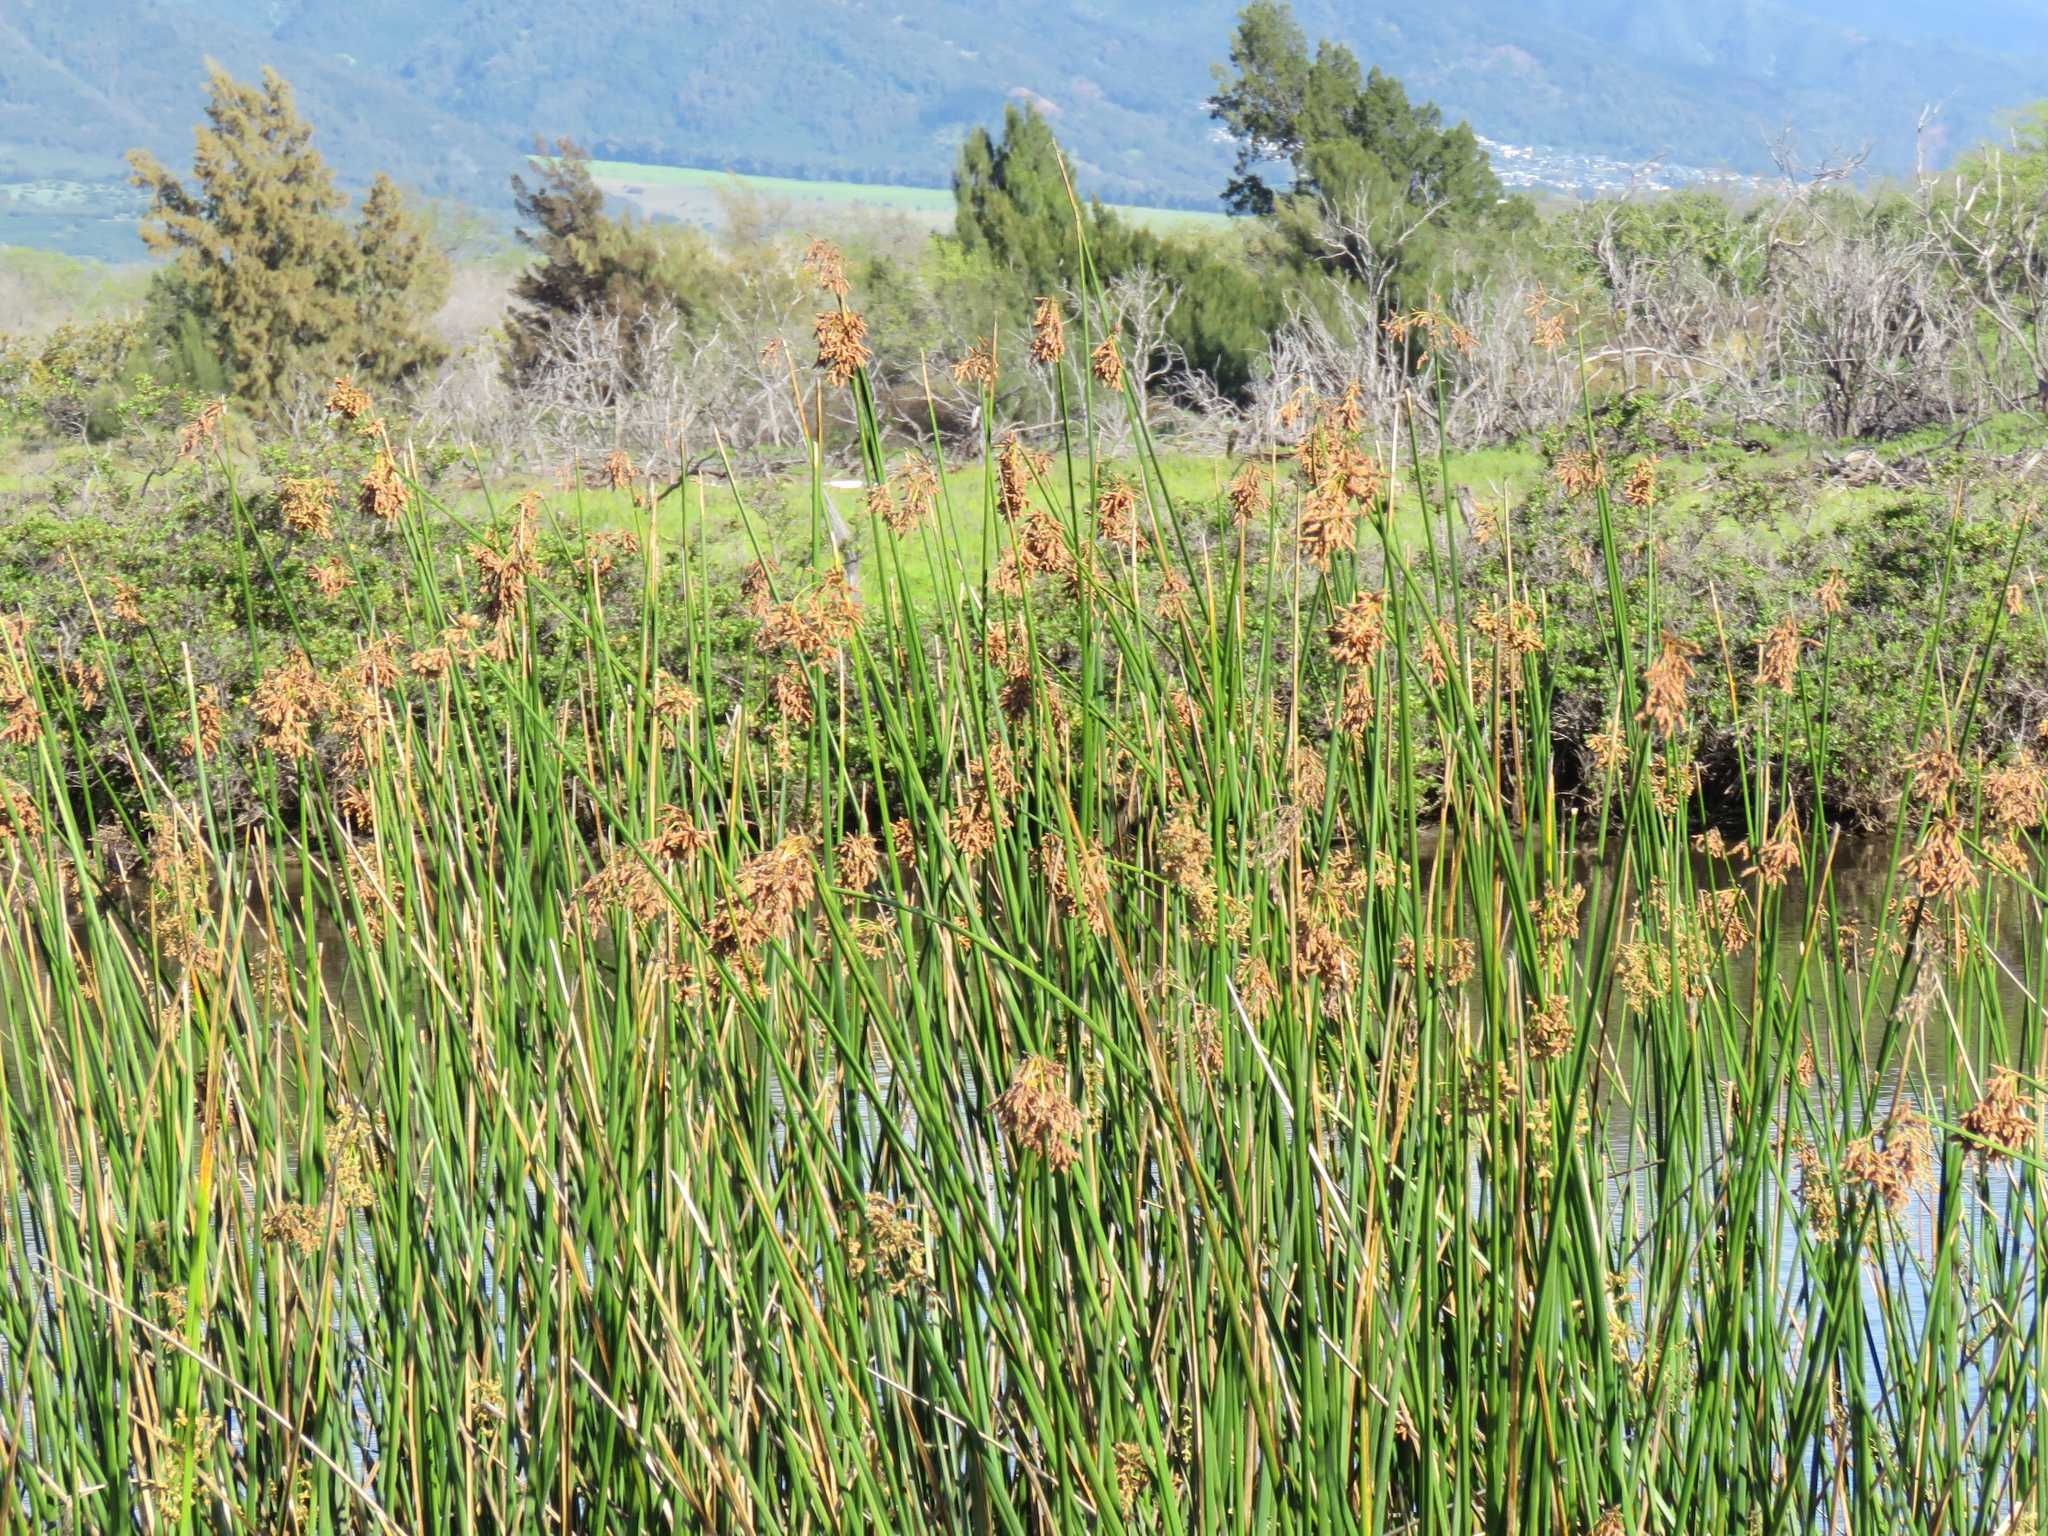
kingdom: Plantae
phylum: Tracheophyta
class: Liliopsida
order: Poales
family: Cyperaceae
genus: Schoenoplectus
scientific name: Schoenoplectus californicus
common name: California bulrush
